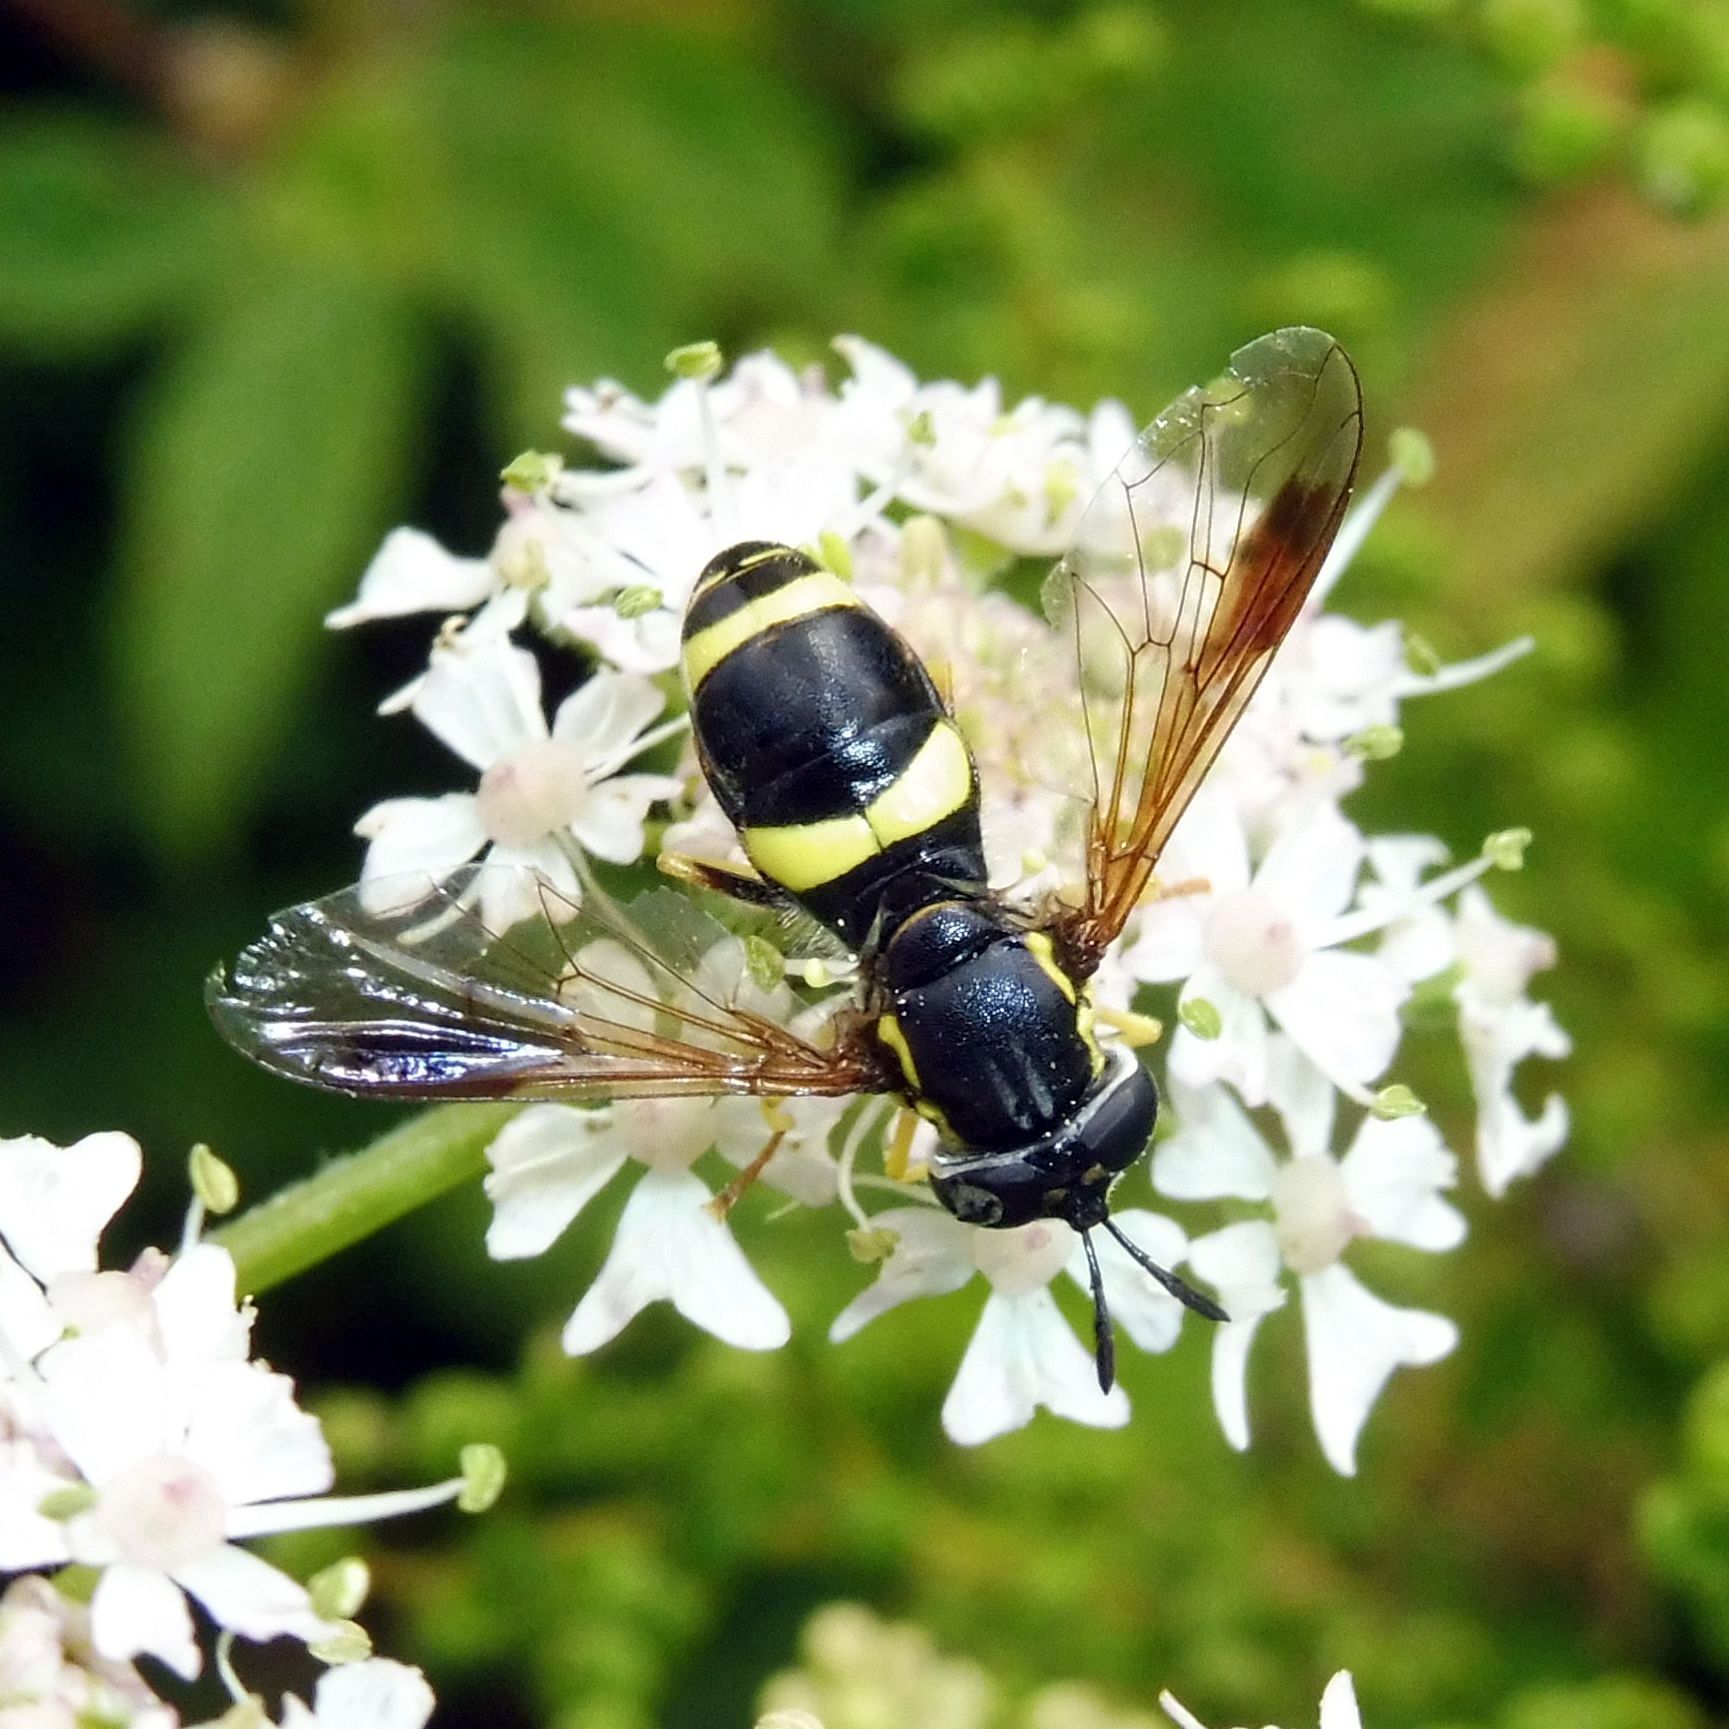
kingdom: Animalia
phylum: Arthropoda
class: Insecta
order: Diptera
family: Syrphidae
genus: Chrysotoxum
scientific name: Chrysotoxum bicincta
